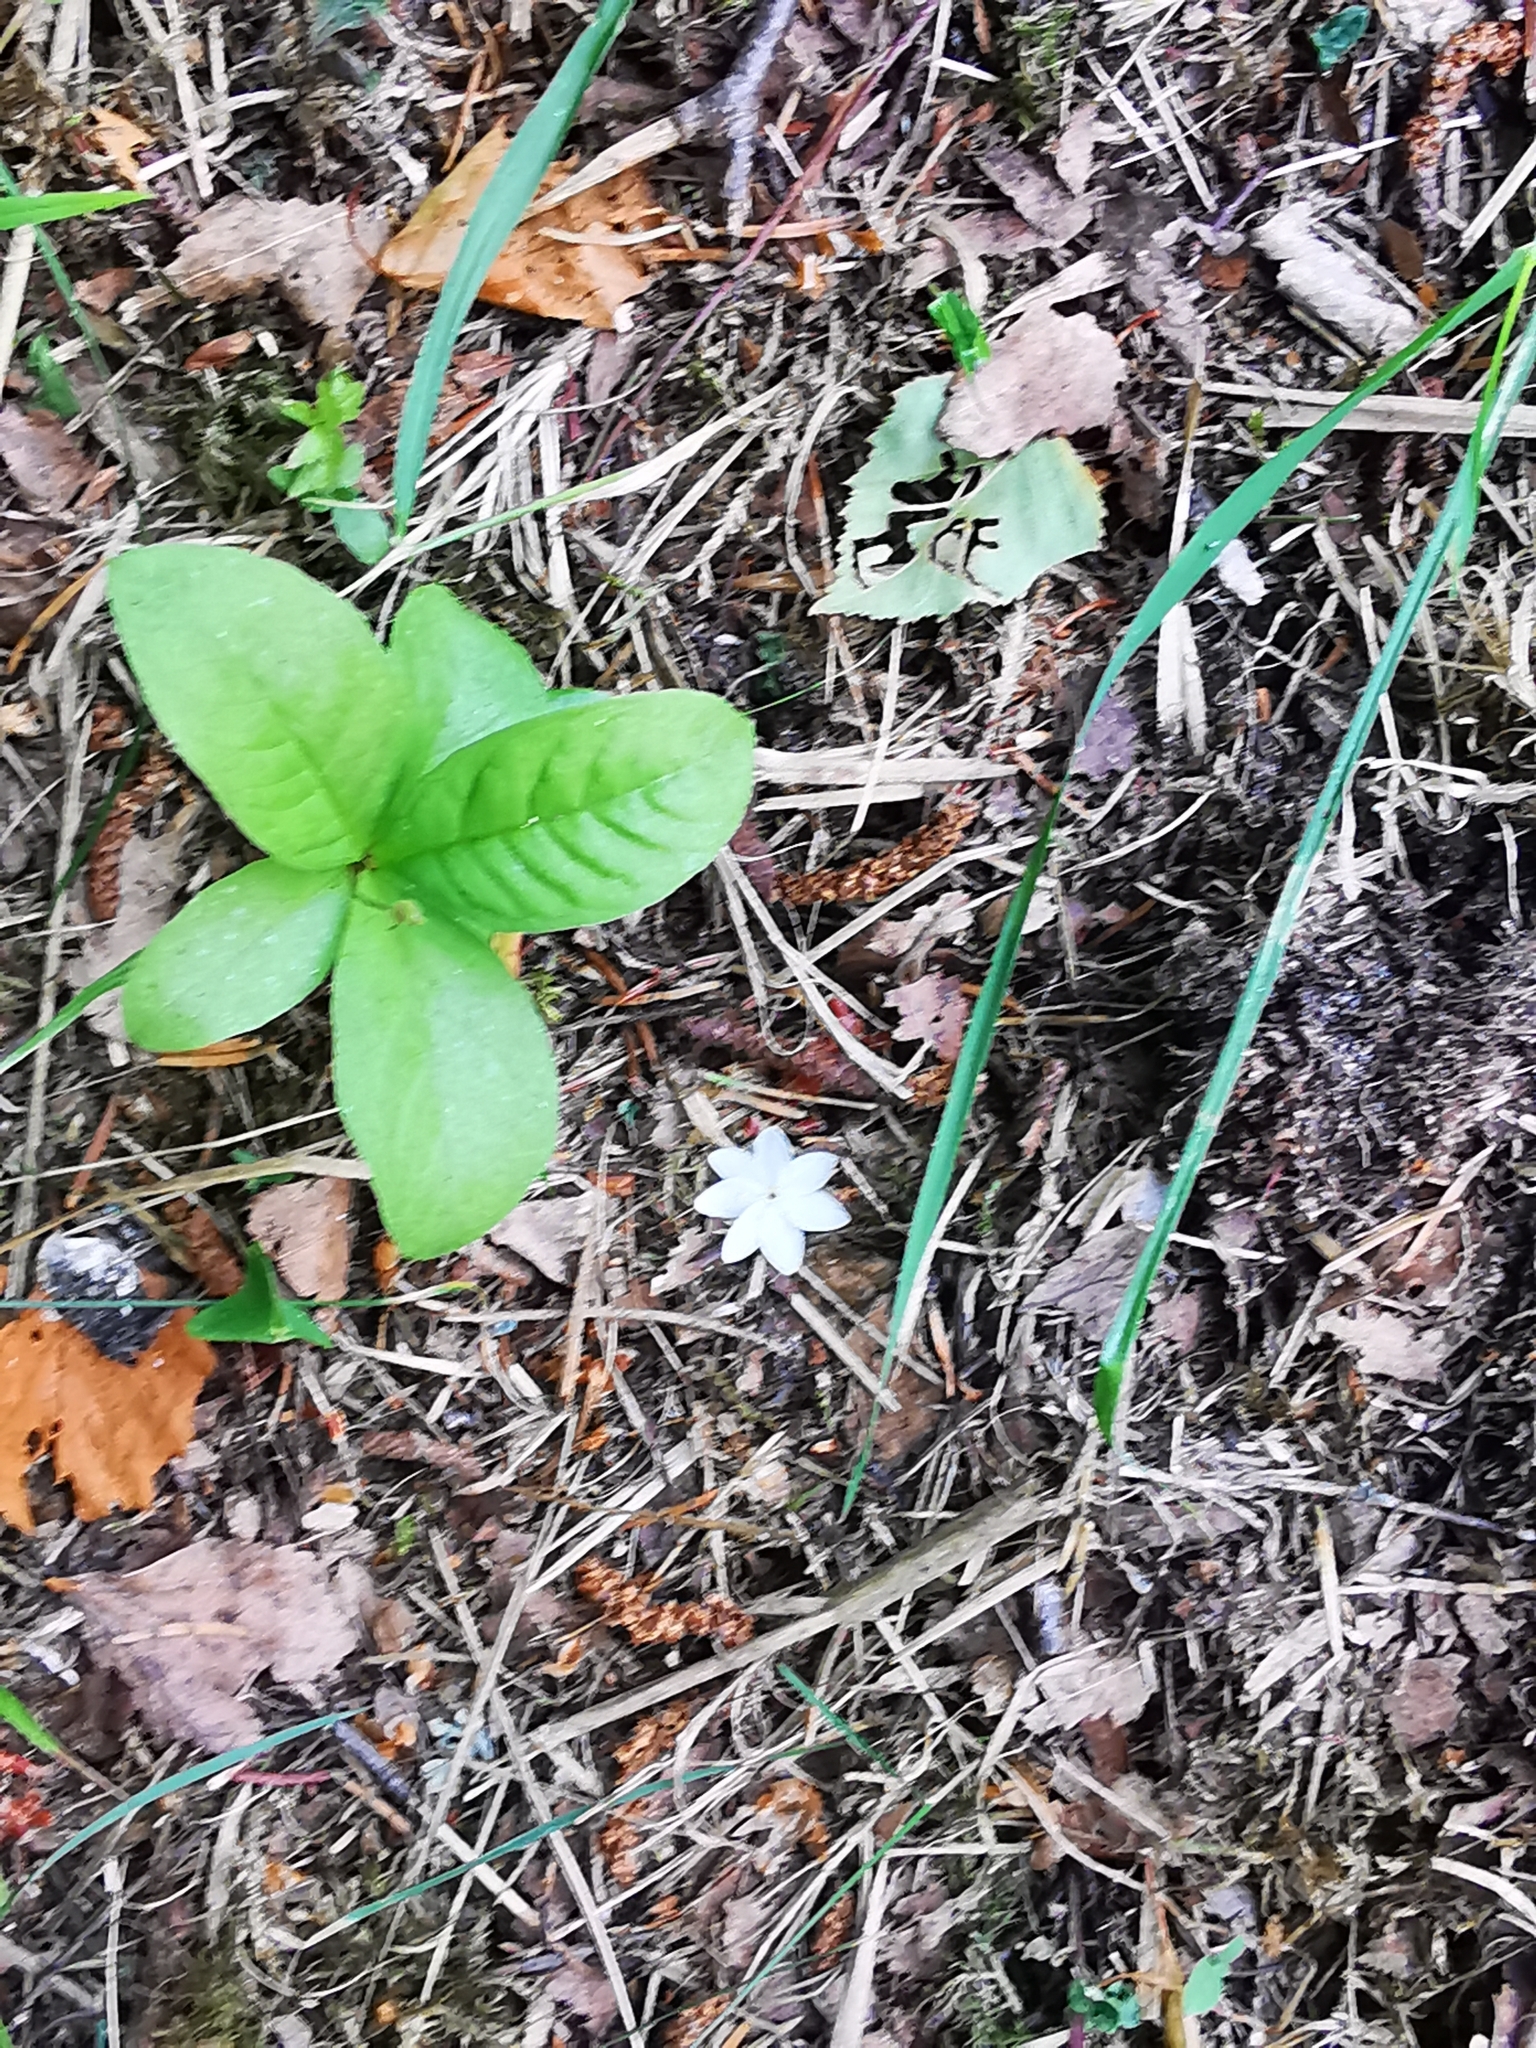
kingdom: Plantae
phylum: Tracheophyta
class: Magnoliopsida
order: Ericales
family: Primulaceae
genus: Lysimachia
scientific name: Lysimachia europaea
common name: Arctic starflower
